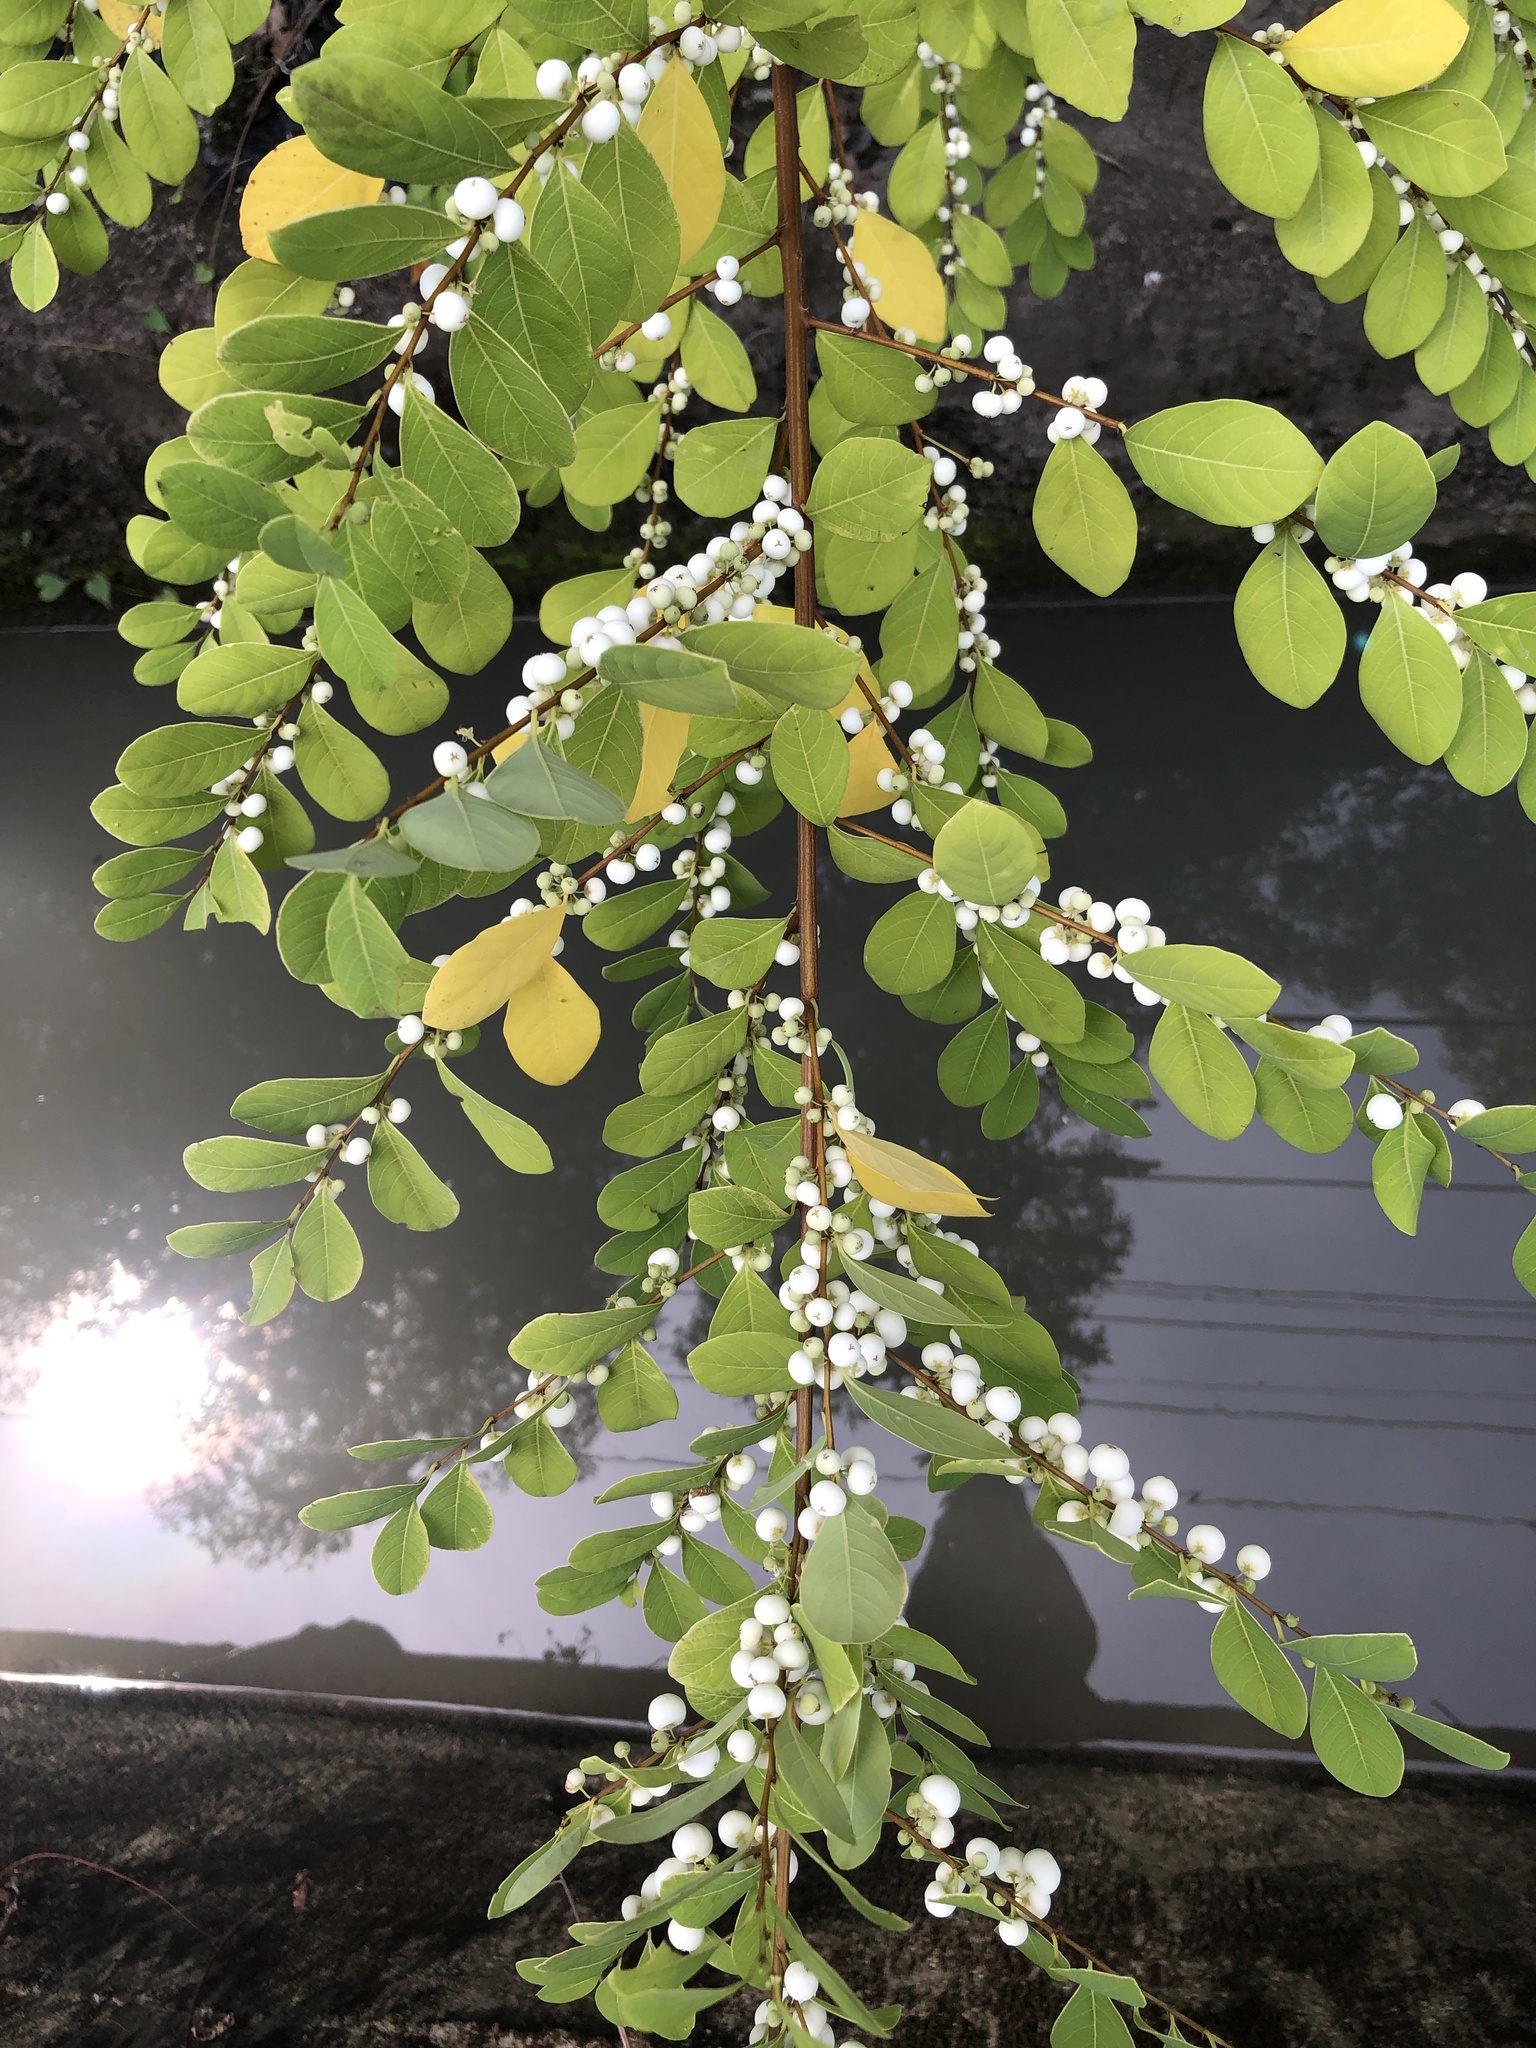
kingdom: Plantae
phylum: Tracheophyta
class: Magnoliopsida
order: Malpighiales
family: Phyllanthaceae
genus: Flueggea
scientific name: Flueggea virosa
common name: Common bushweed
